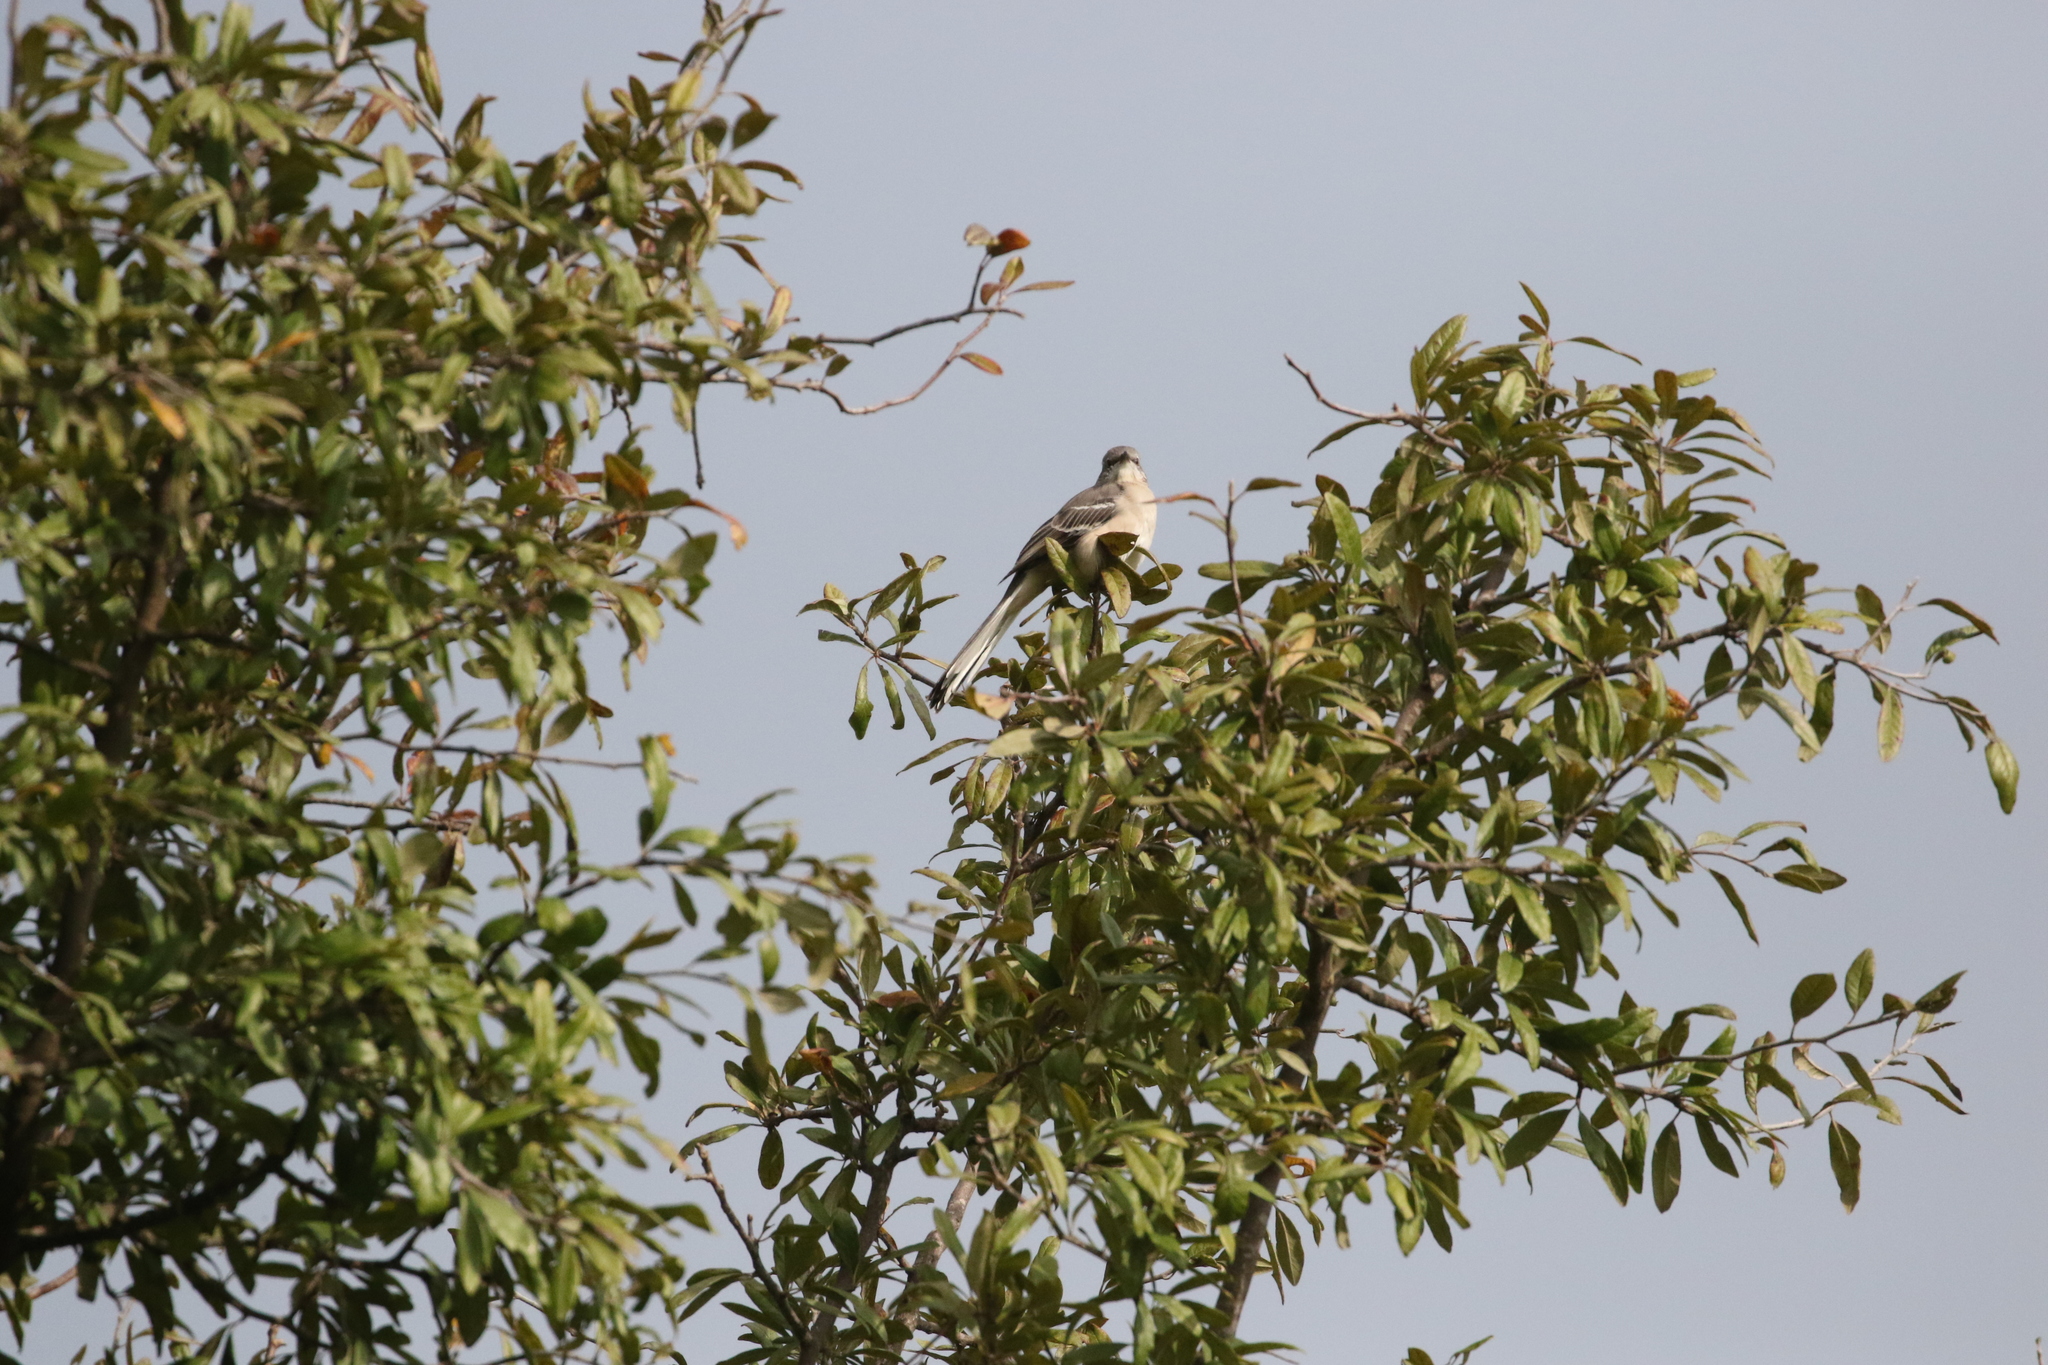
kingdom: Animalia
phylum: Chordata
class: Aves
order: Passeriformes
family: Mimidae
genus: Mimus
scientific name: Mimus polyglottos
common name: Northern mockingbird
